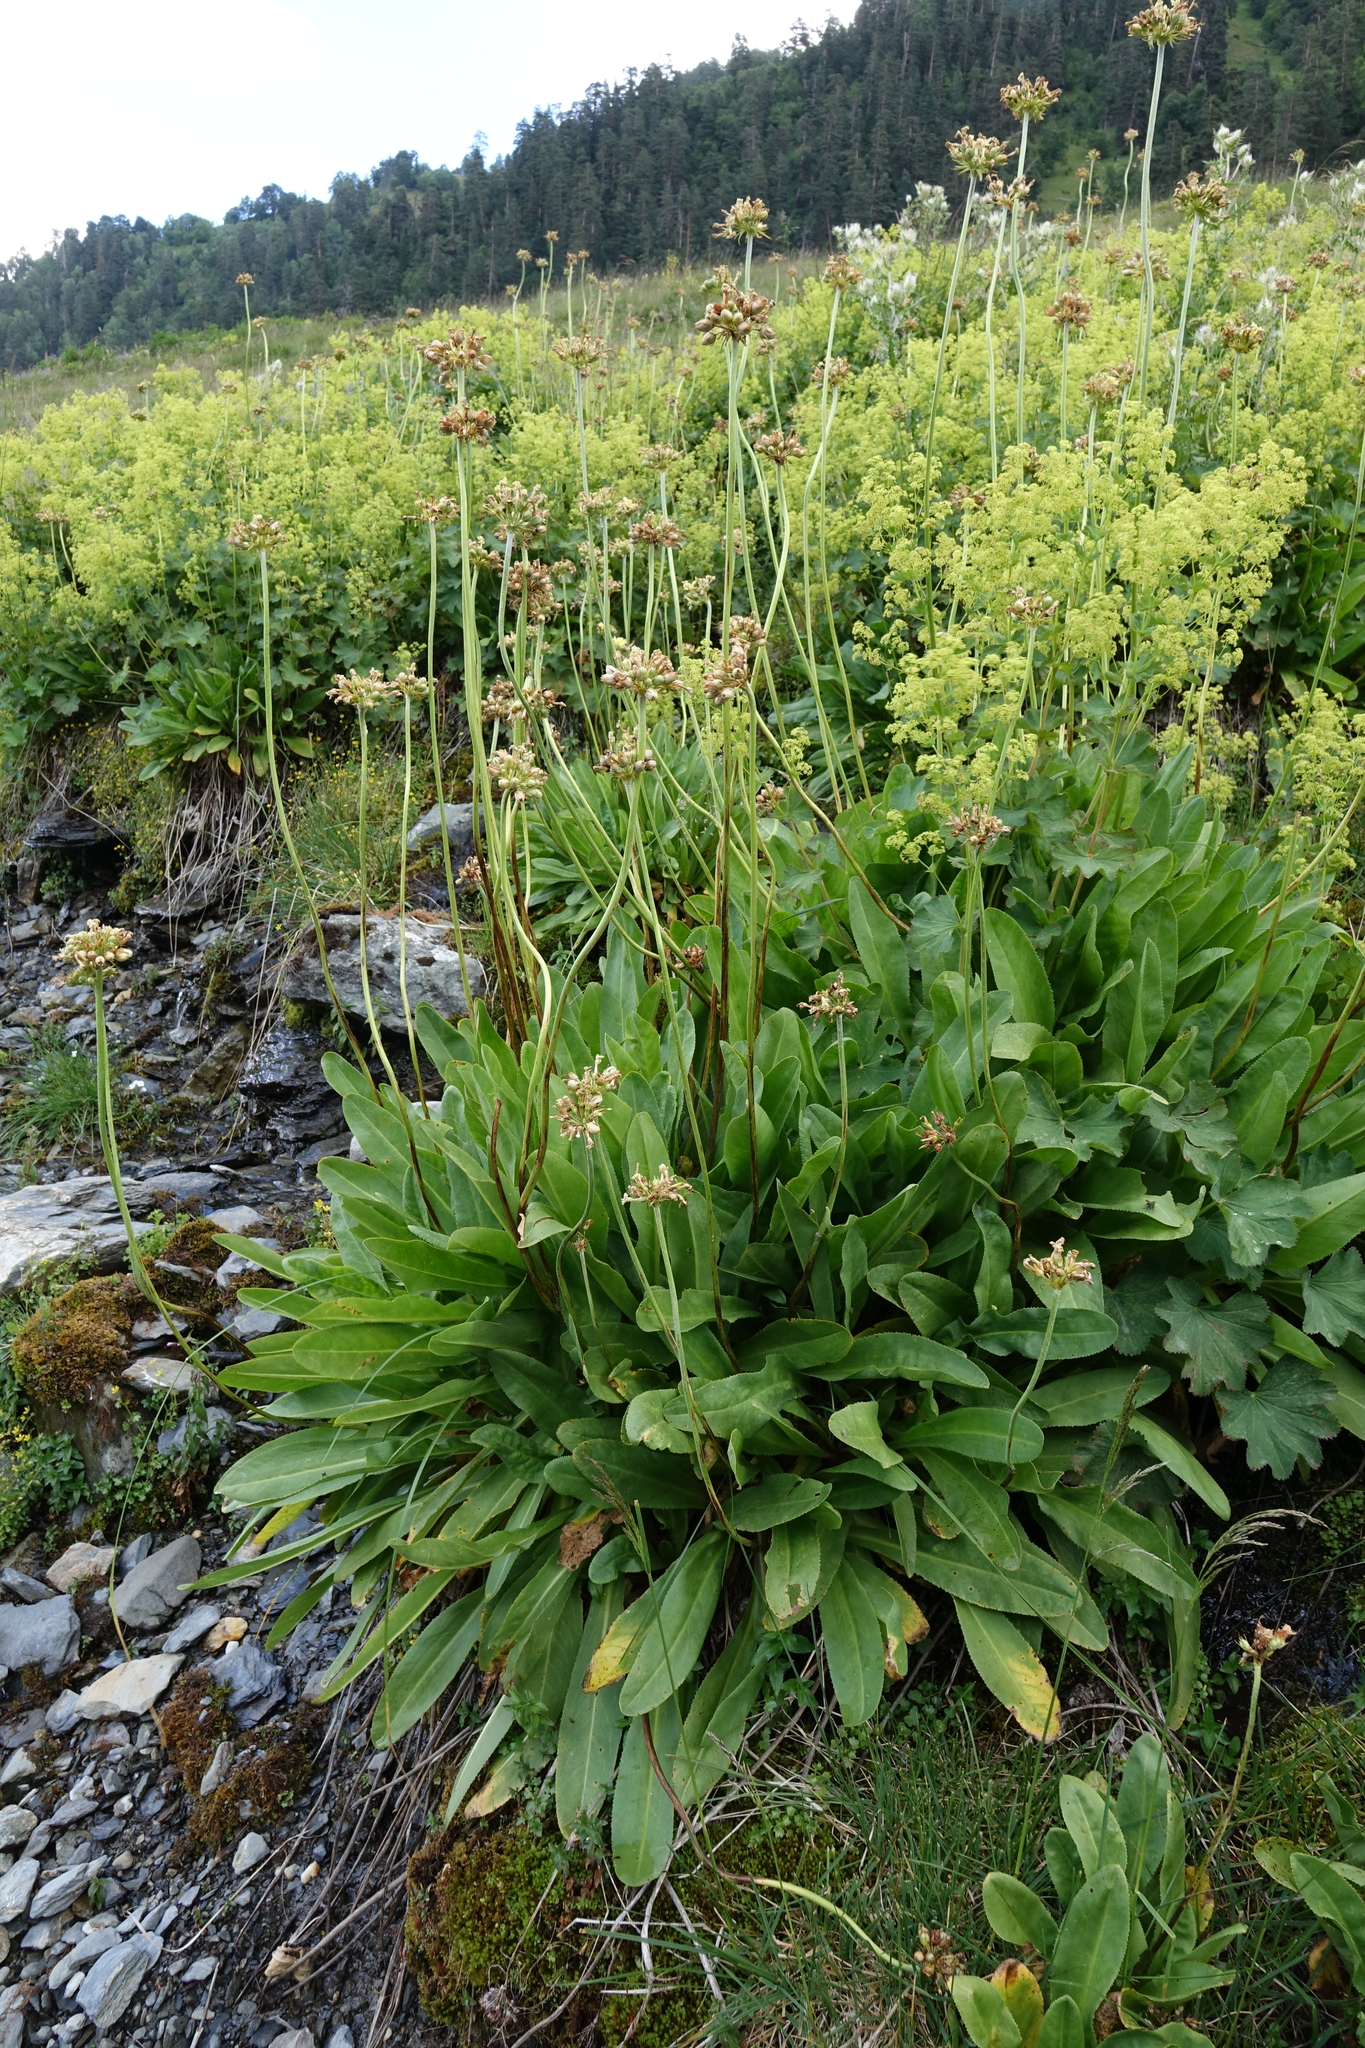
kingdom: Plantae
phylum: Tracheophyta
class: Magnoliopsida
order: Ericales
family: Primulaceae
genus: Primula
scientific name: Primula luteola
